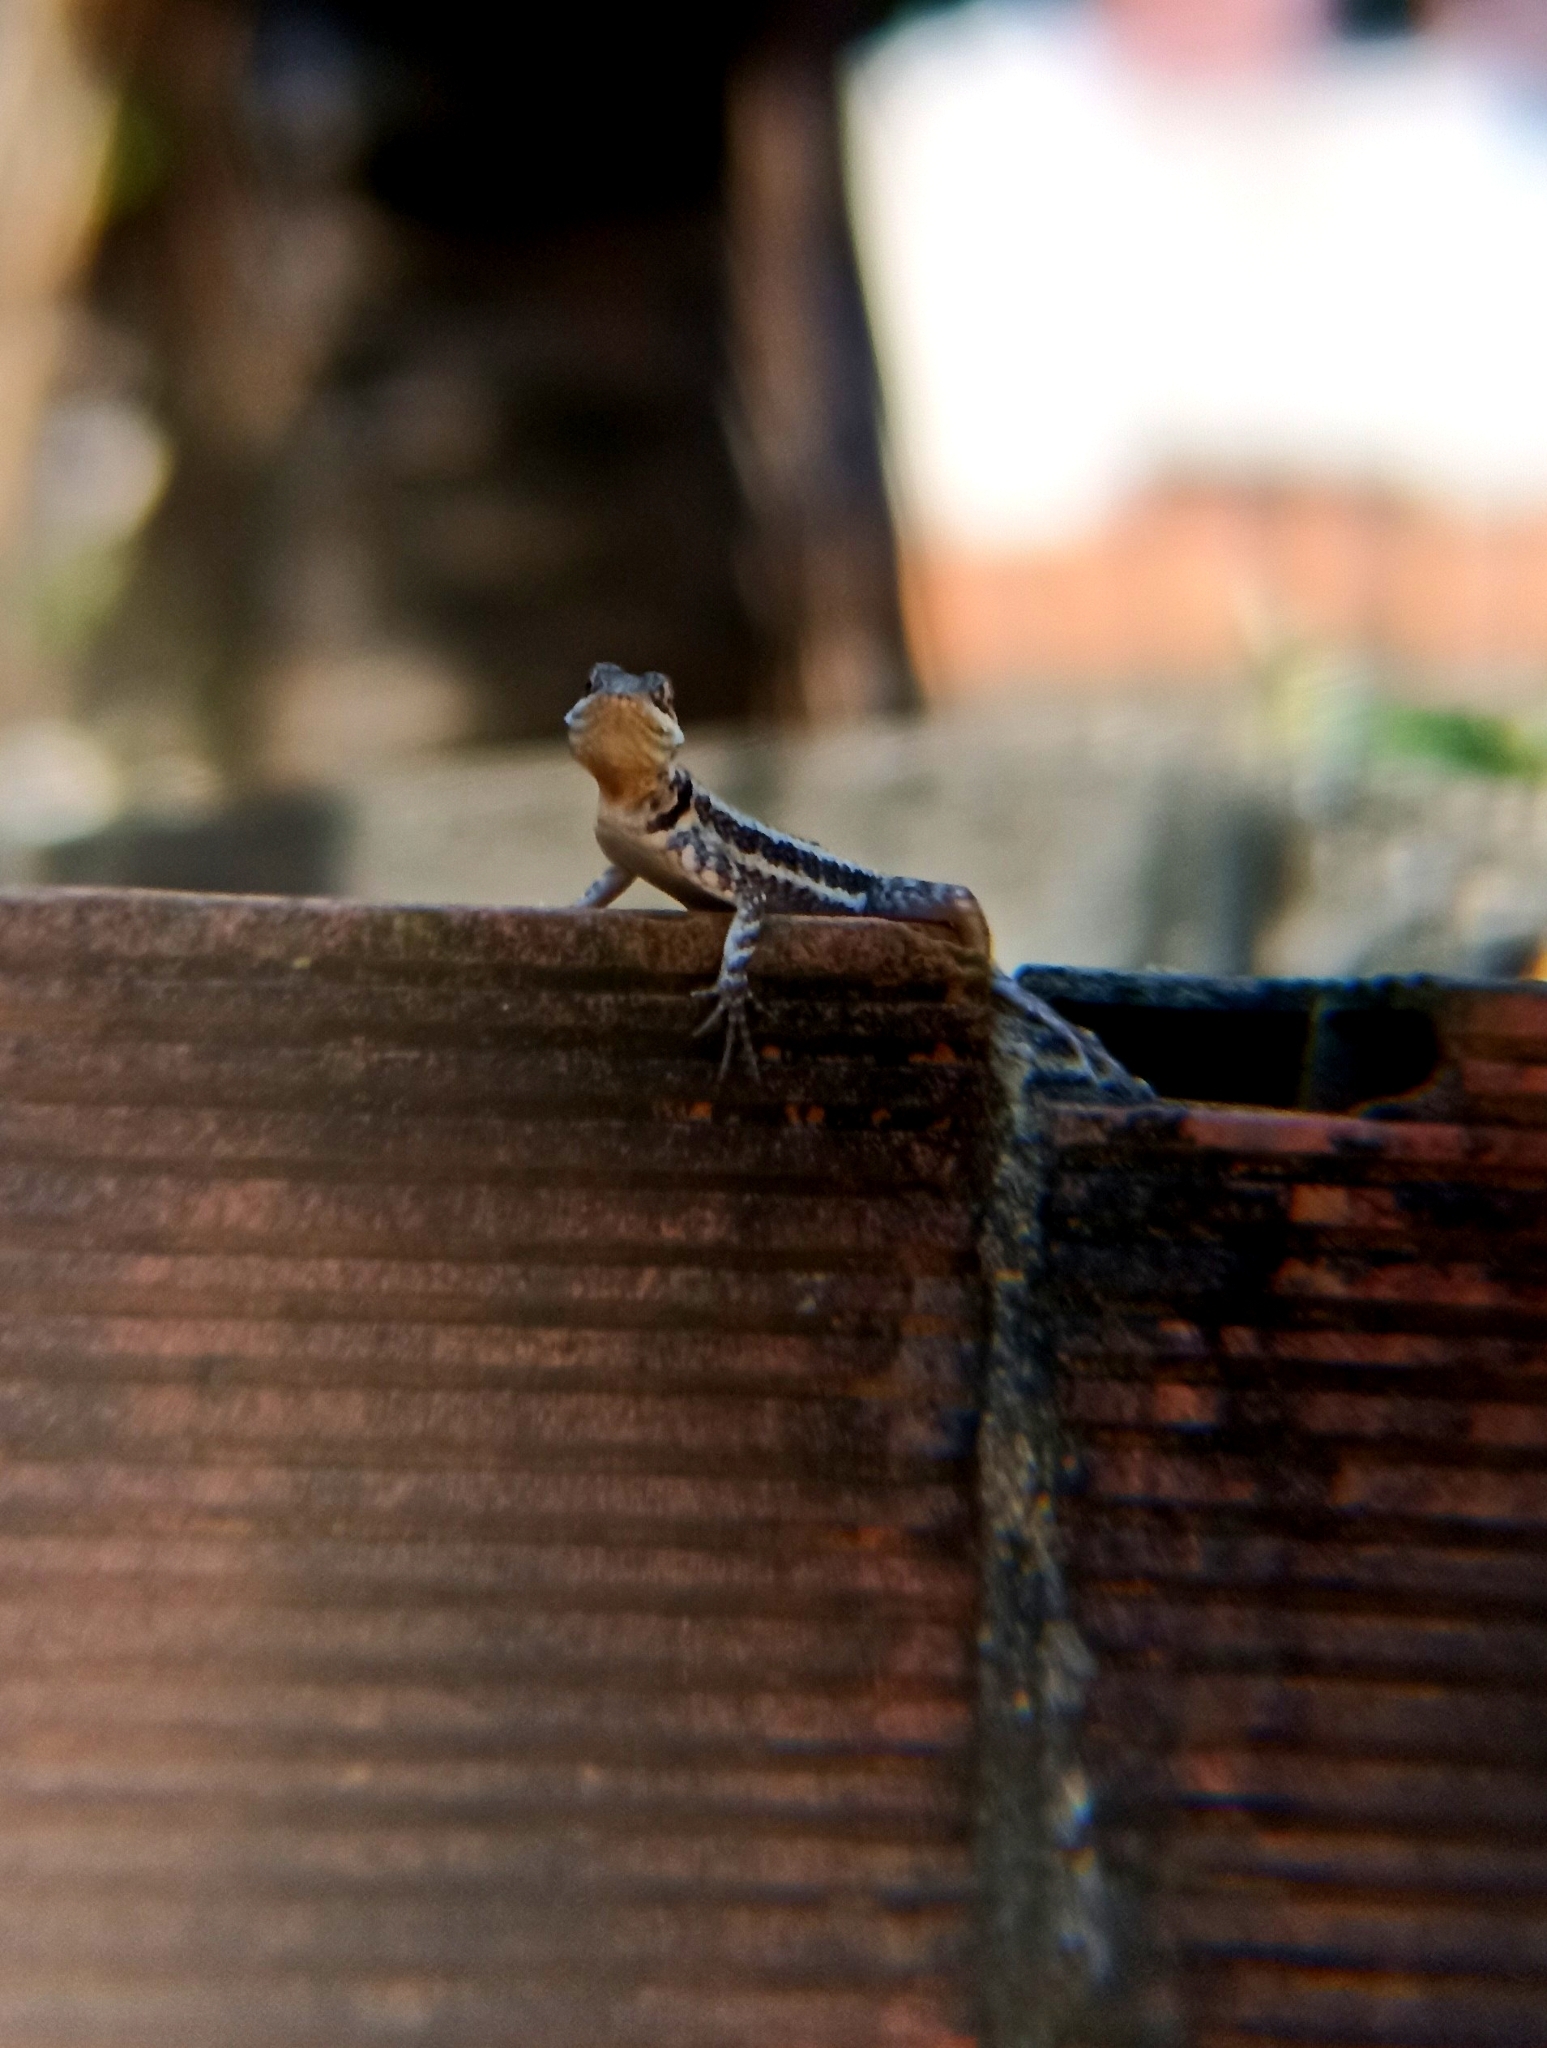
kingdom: Animalia
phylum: Chordata
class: Squamata
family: Tropiduridae
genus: Tropidurus
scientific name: Tropidurus torquatus
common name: Amazon lava lizard
